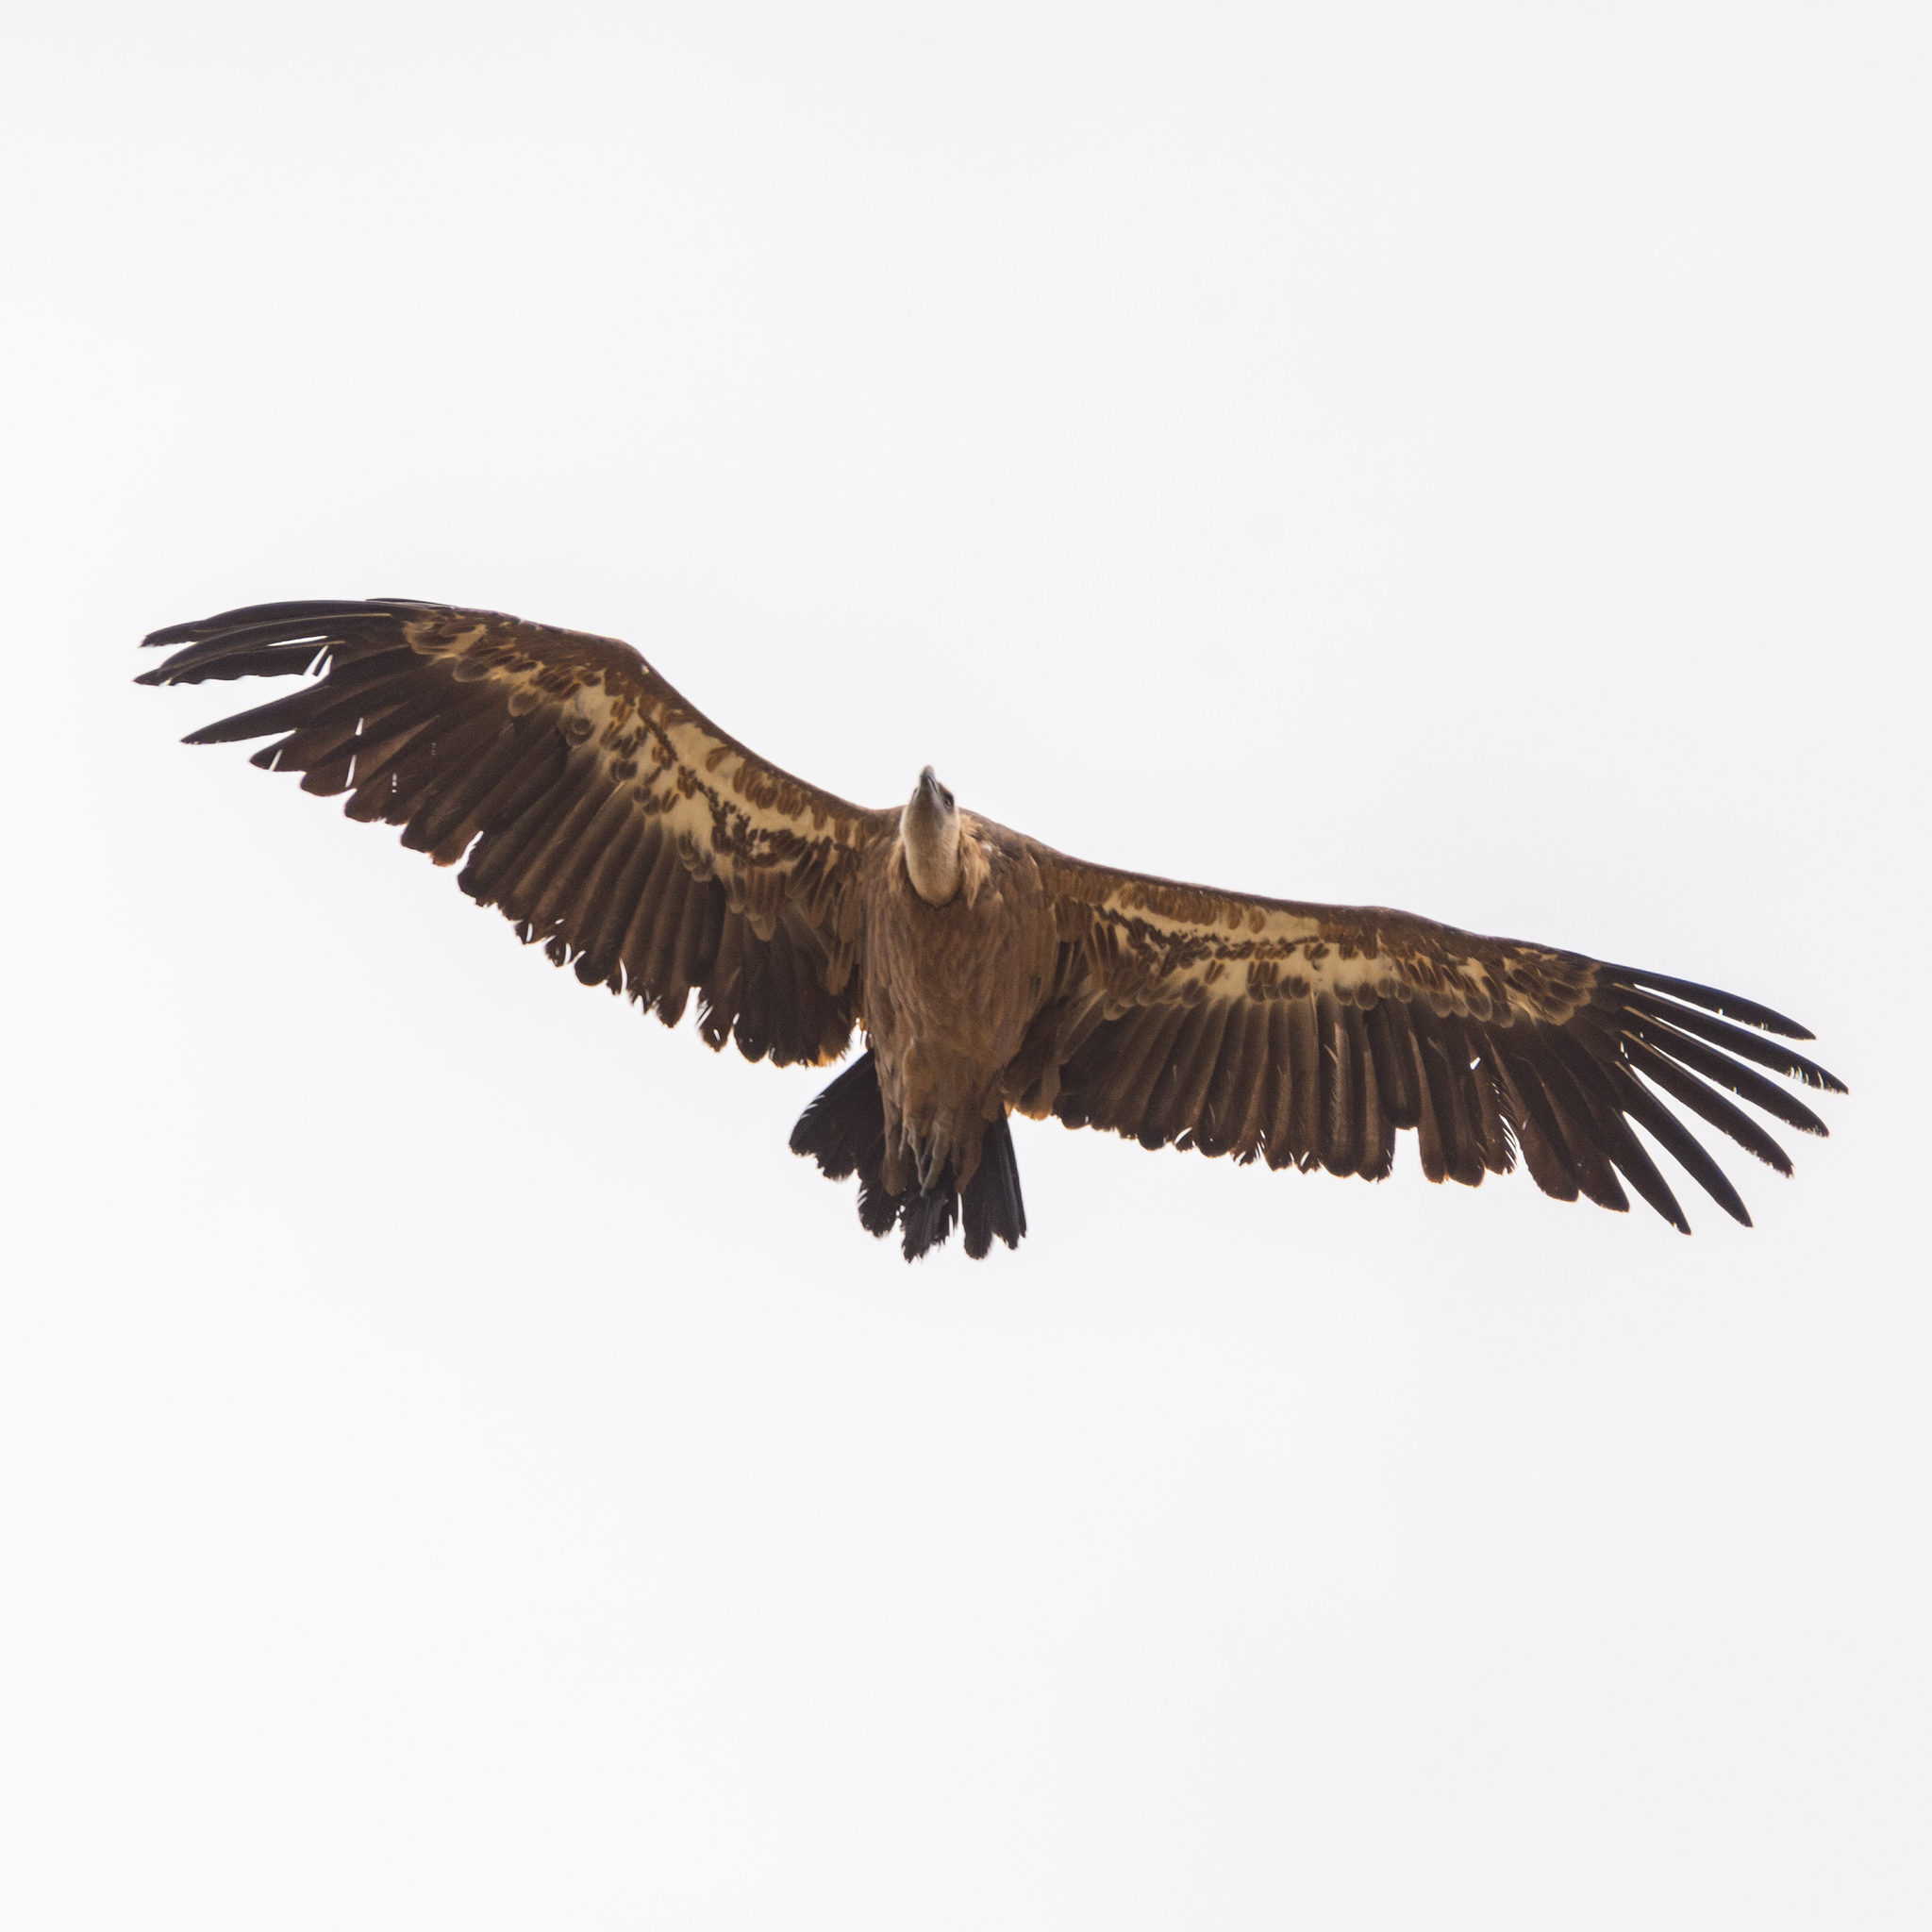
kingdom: Animalia
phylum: Chordata
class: Aves
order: Accipitriformes
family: Accipitridae
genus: Gyps
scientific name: Gyps fulvus
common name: Griffon vulture
